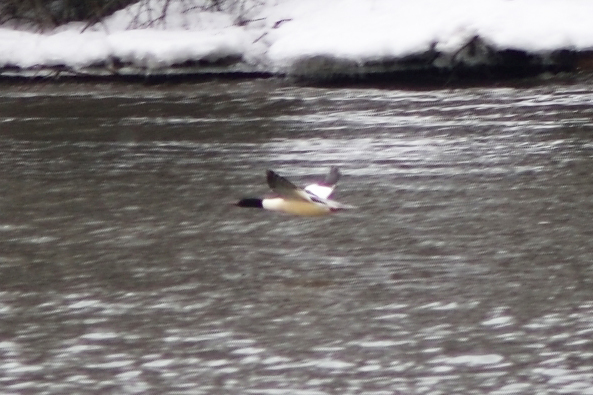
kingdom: Animalia
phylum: Chordata
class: Aves
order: Anseriformes
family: Anatidae
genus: Mergus
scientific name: Mergus merganser
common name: Common merganser
